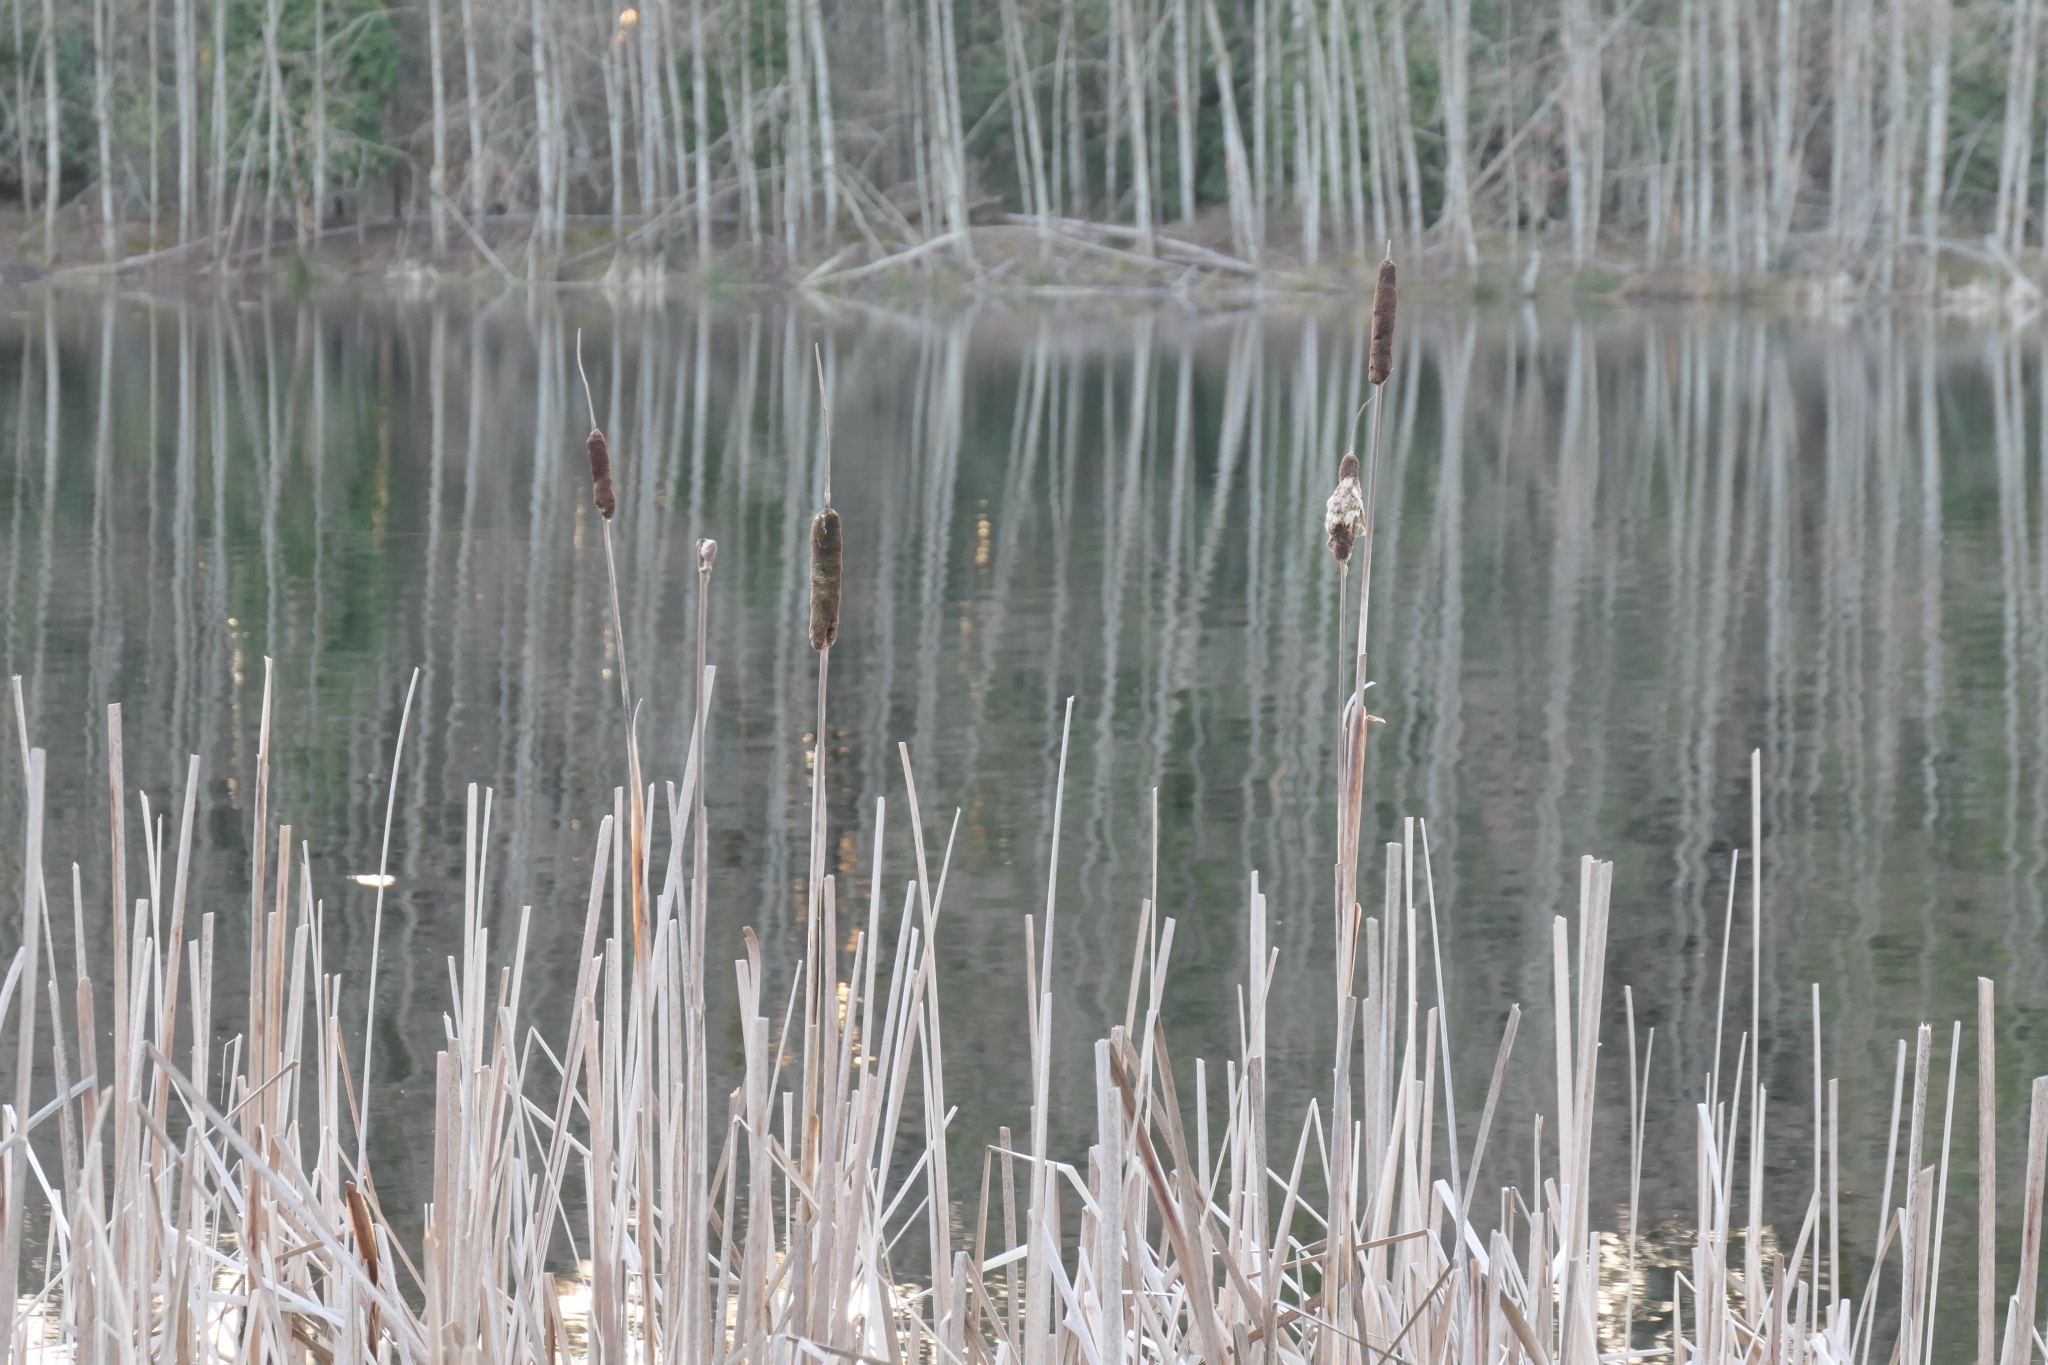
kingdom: Plantae
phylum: Tracheophyta
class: Liliopsida
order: Poales
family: Typhaceae
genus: Typha
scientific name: Typha latifolia
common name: Broadleaf cattail
